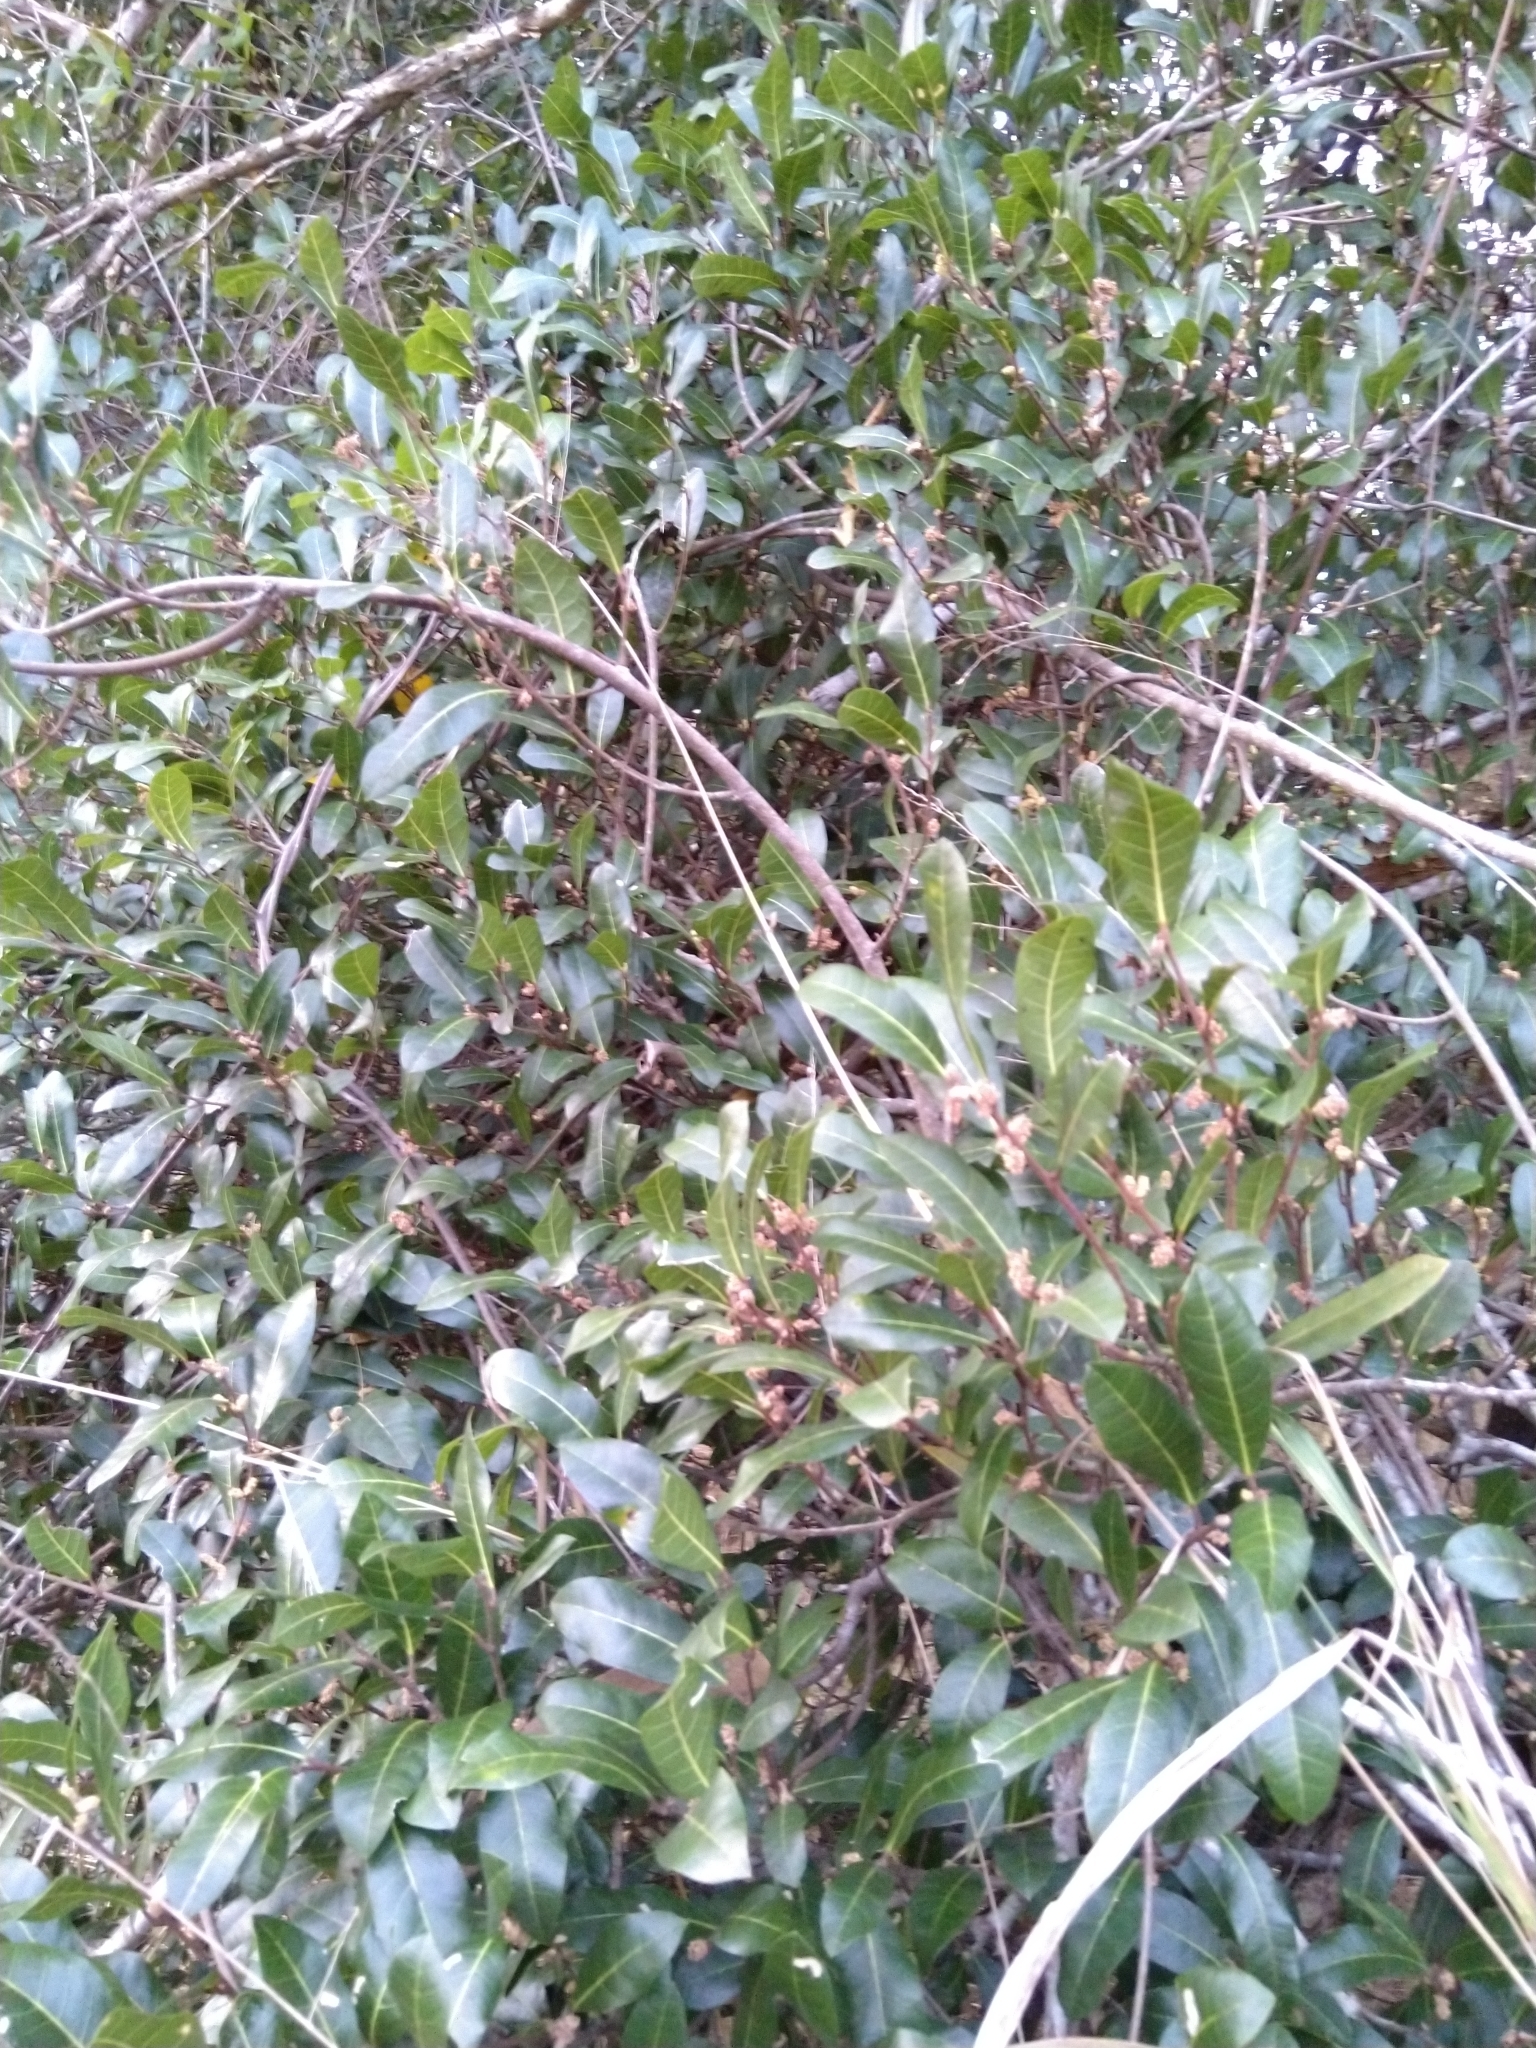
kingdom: Plantae
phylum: Tracheophyta
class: Magnoliopsida
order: Rosales
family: Moraceae
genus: Malaisia
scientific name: Malaisia scandens
